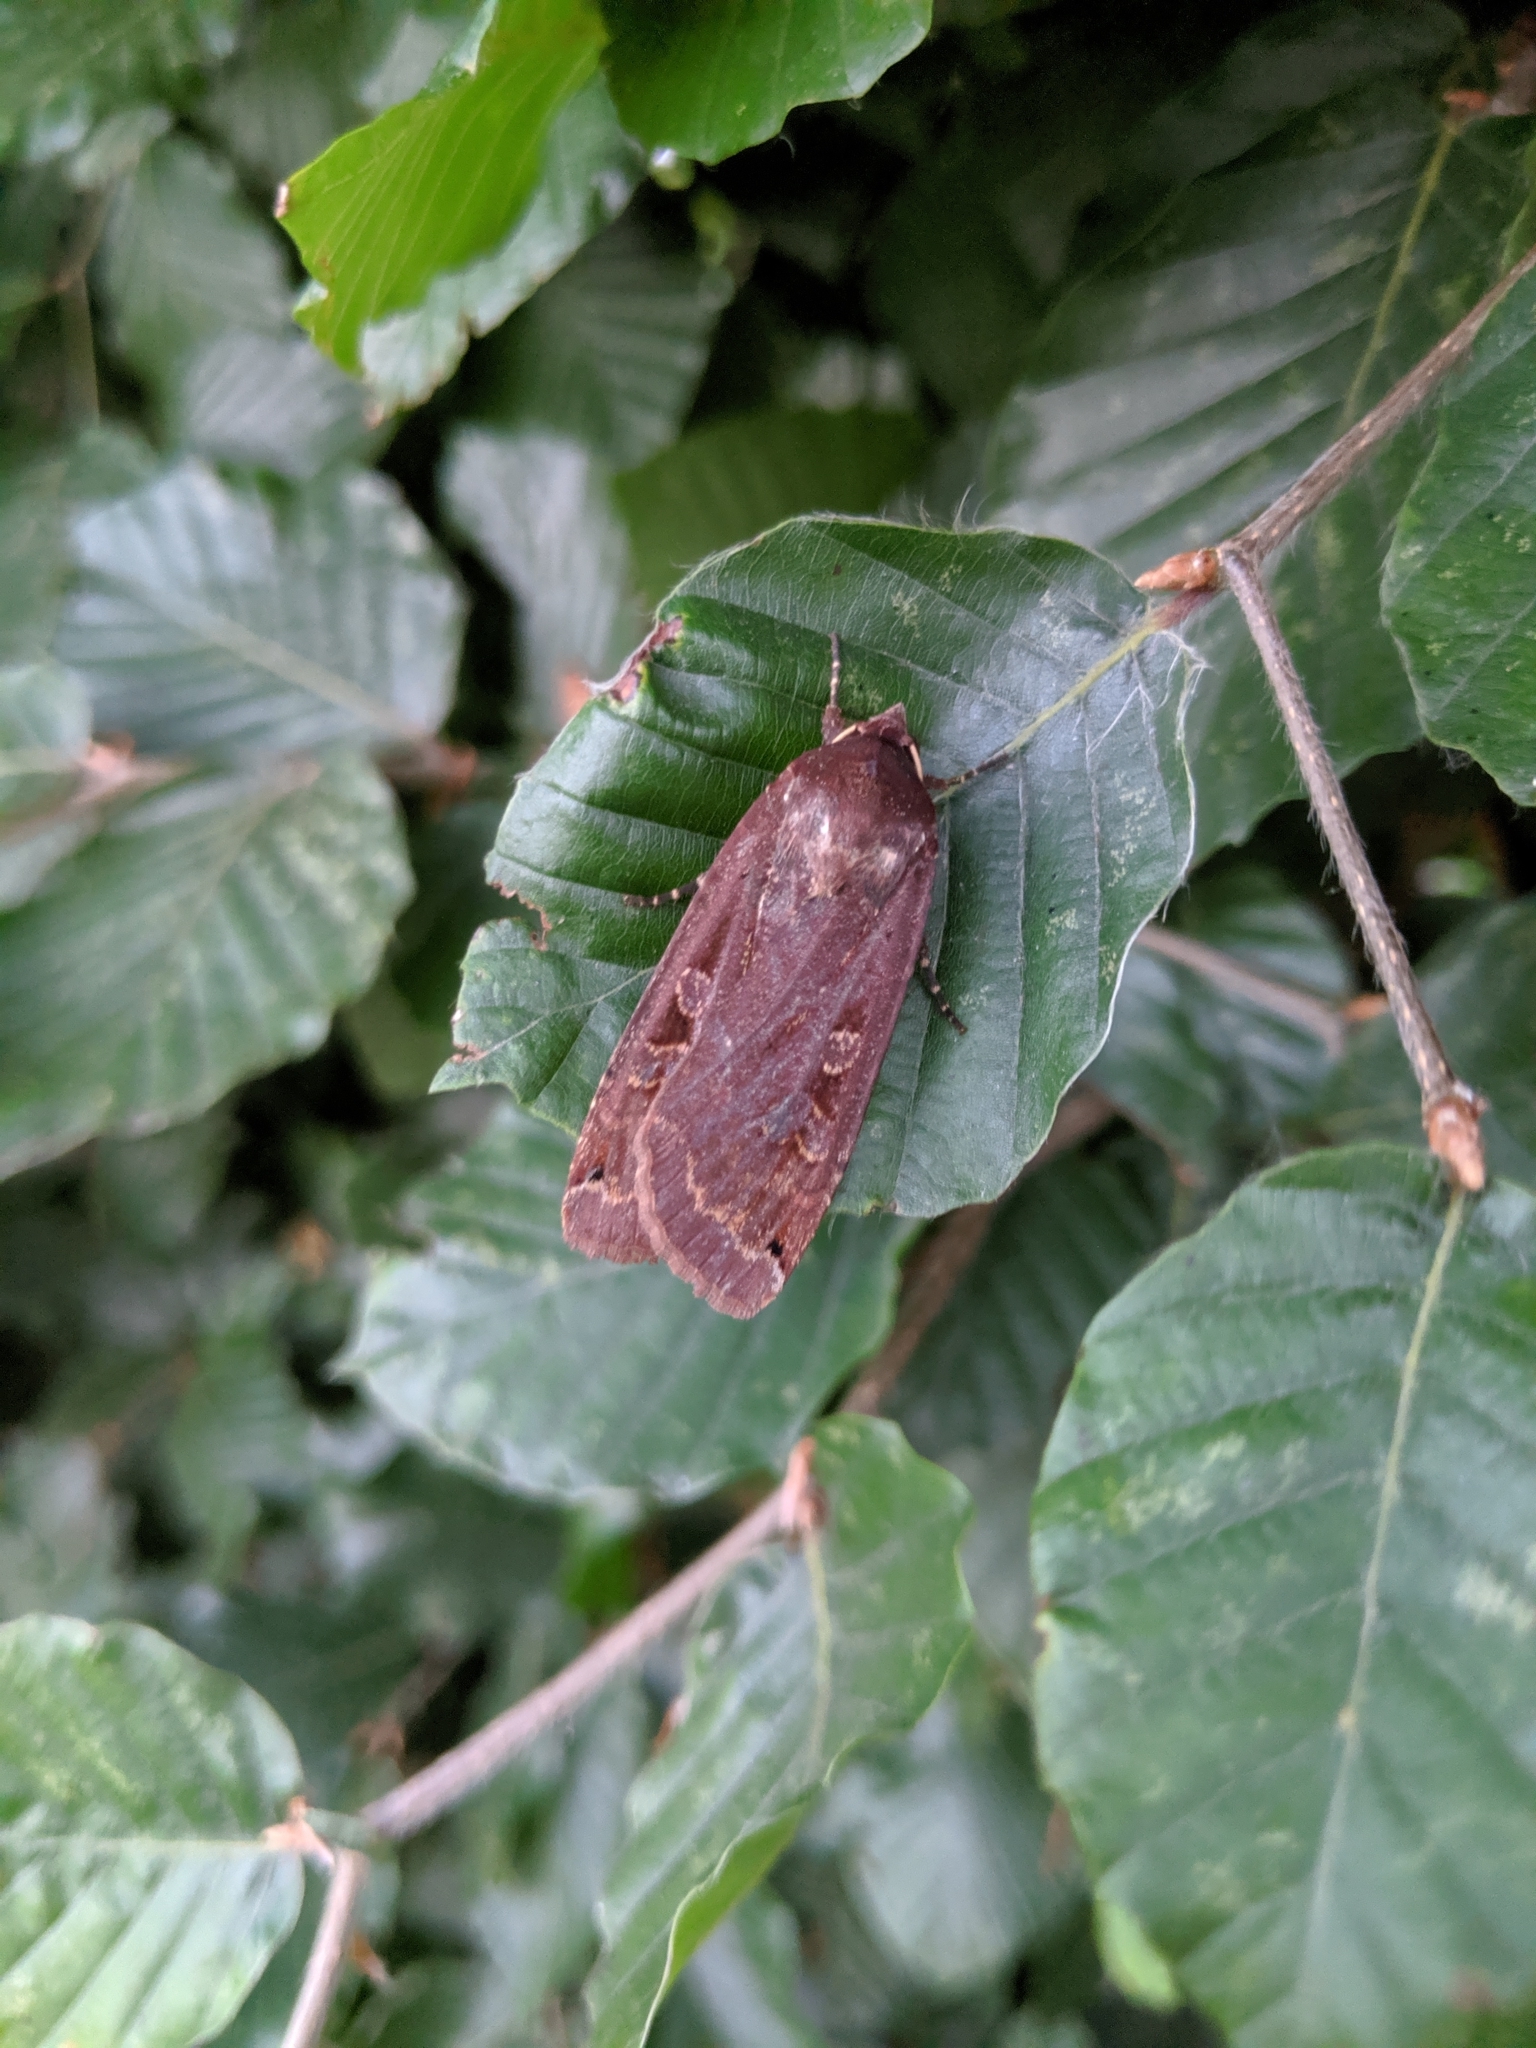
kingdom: Animalia
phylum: Arthropoda
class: Insecta
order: Lepidoptera
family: Noctuidae
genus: Noctua
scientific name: Noctua pronuba
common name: Large yellow underwing
